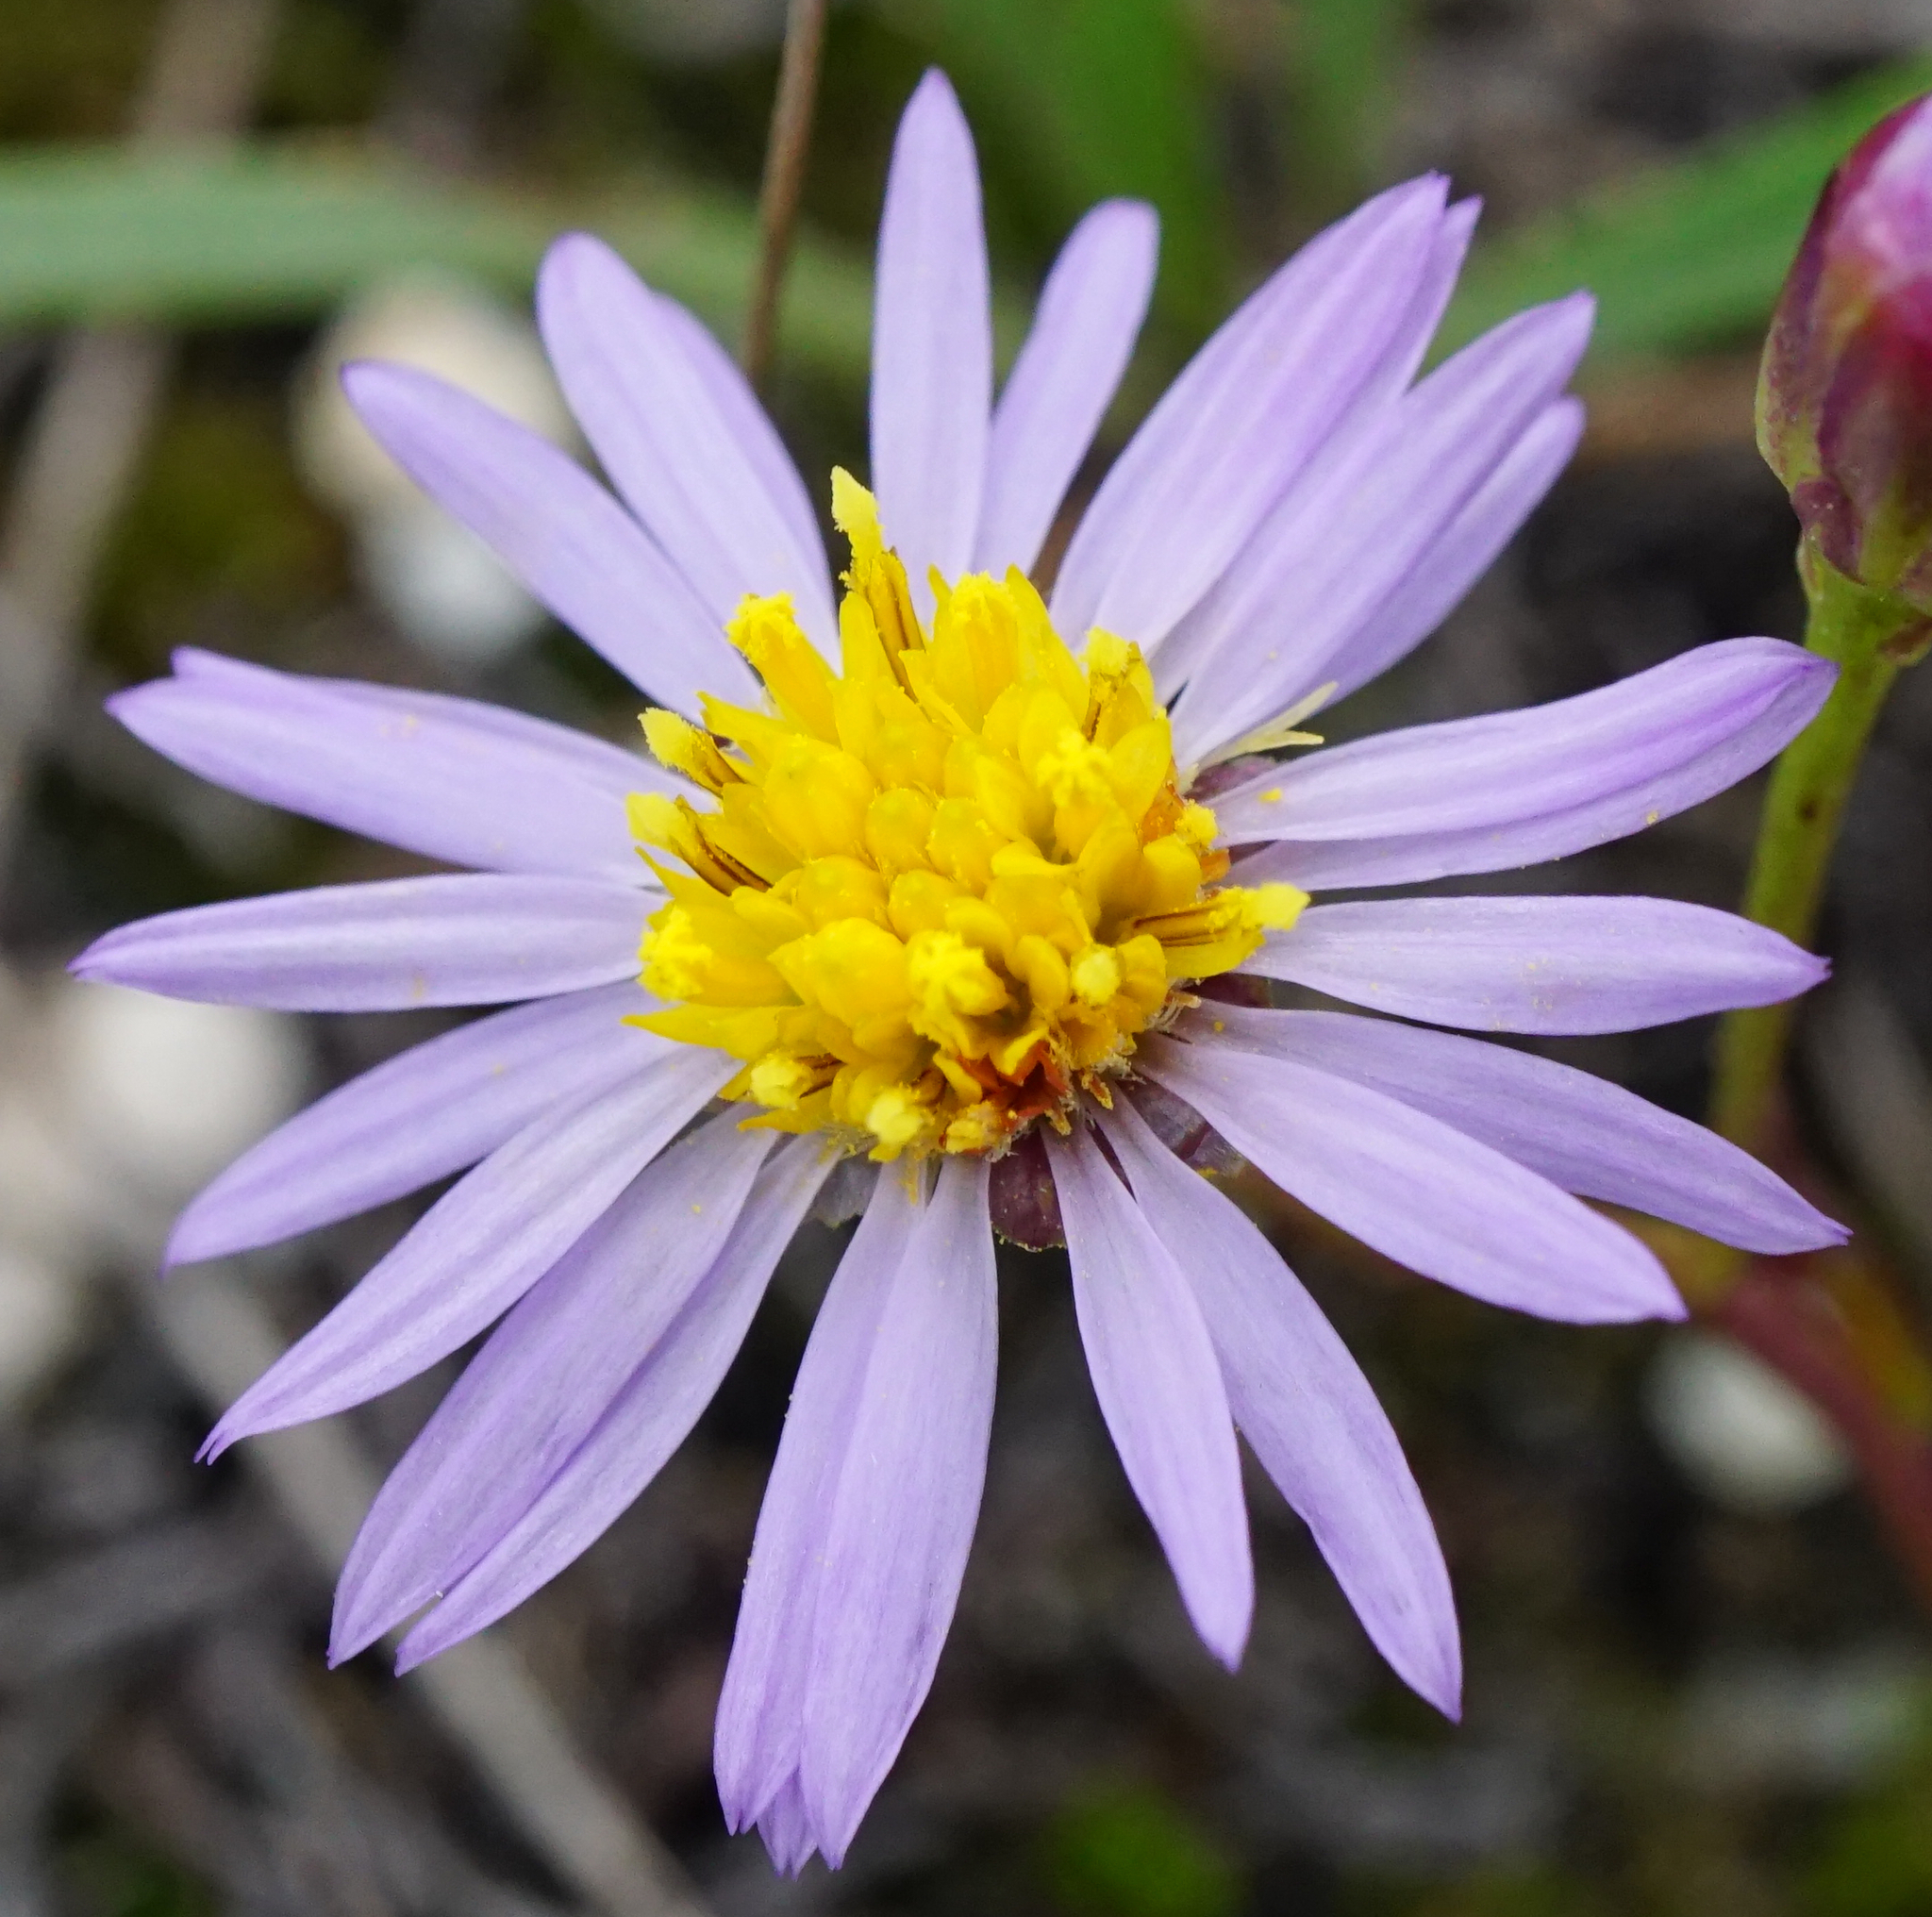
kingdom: Plantae
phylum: Tracheophyta
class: Magnoliopsida
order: Asterales
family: Asteraceae
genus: Tripolium
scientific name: Tripolium pannonicum
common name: Sea aster
